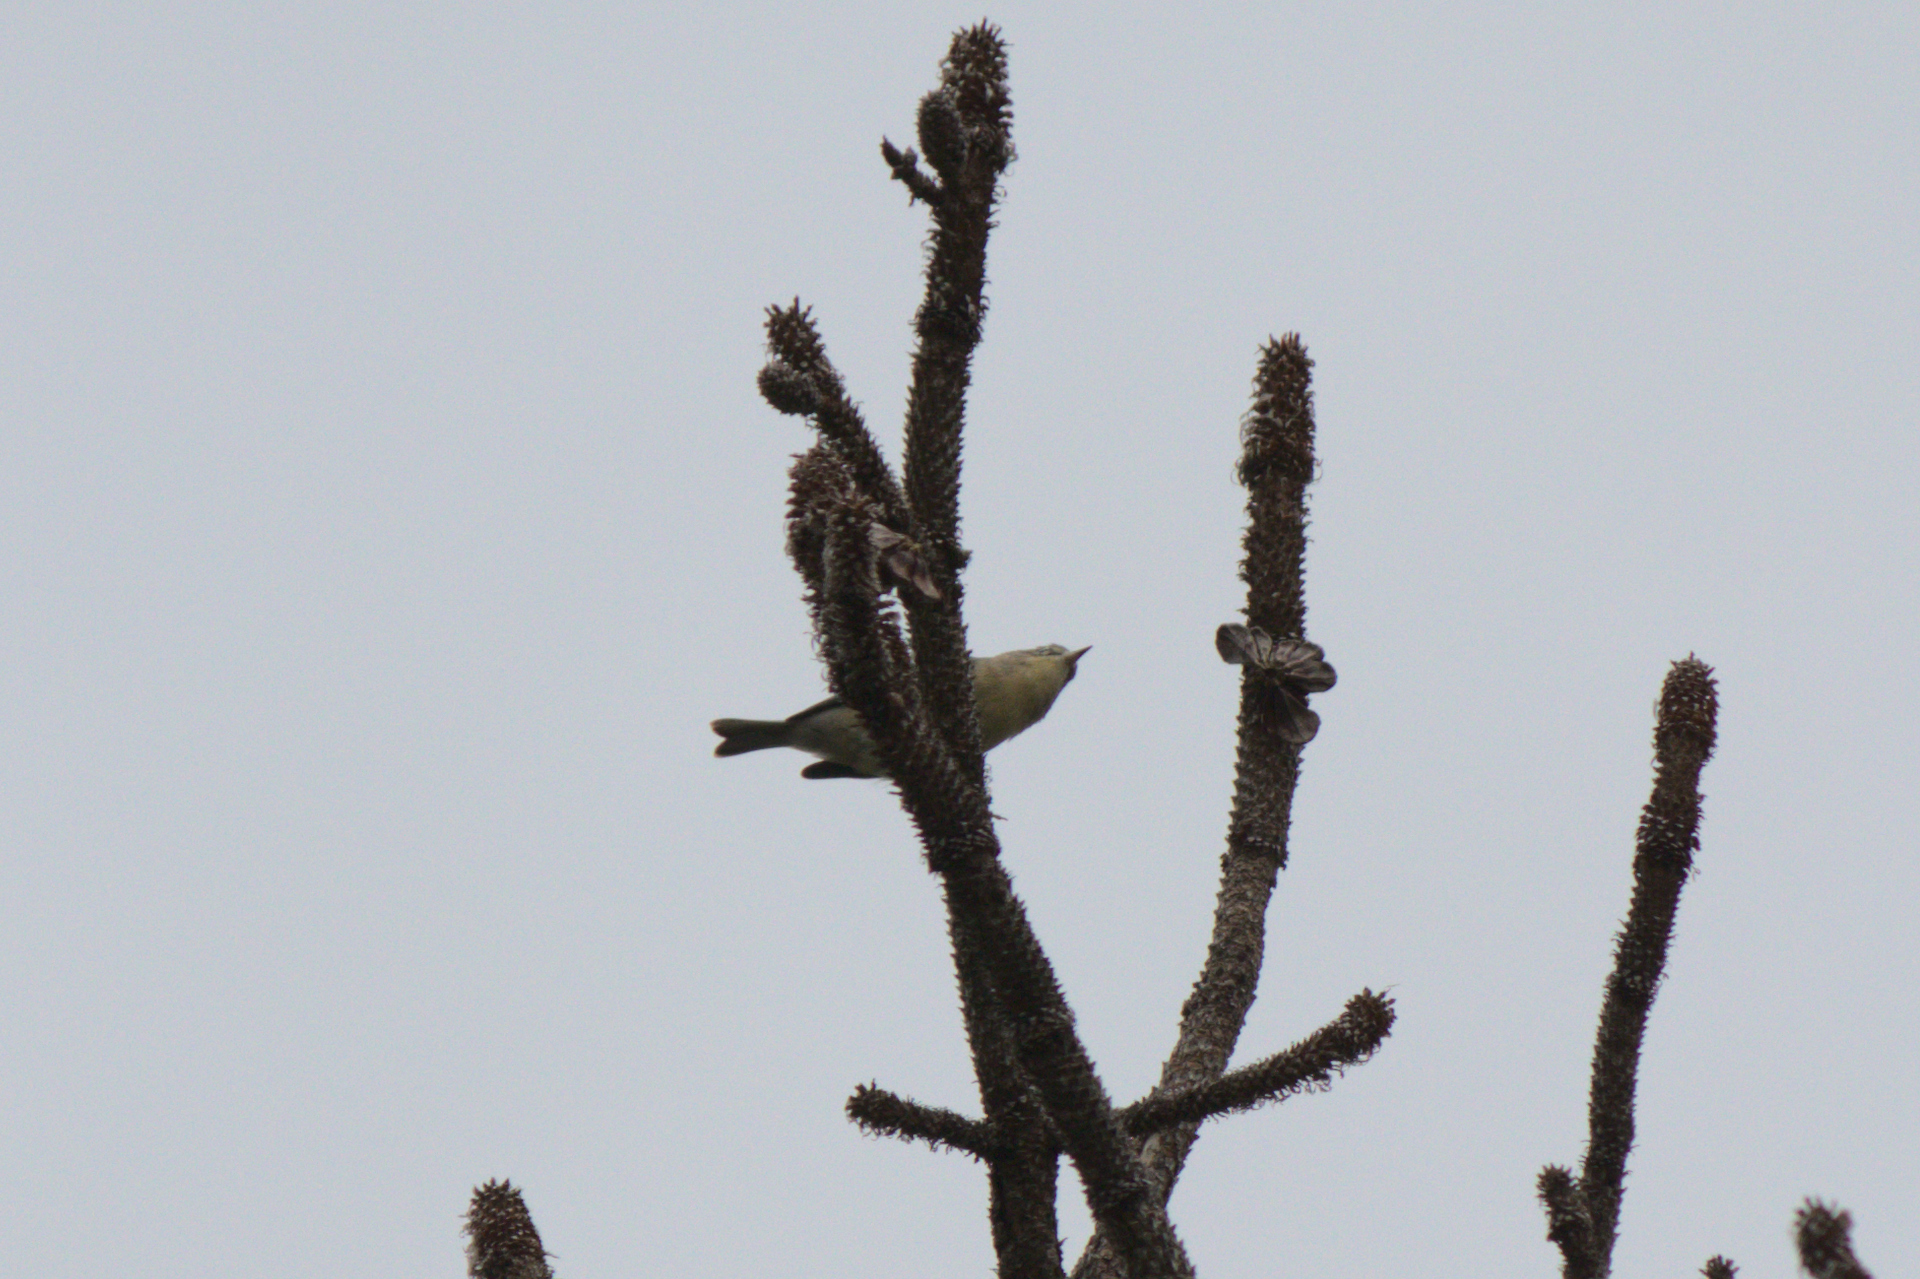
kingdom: Animalia
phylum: Chordata
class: Aves
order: Passeriformes
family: Parulidae
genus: Setophaga
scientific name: Setophaga pinus
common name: Pine warbler
